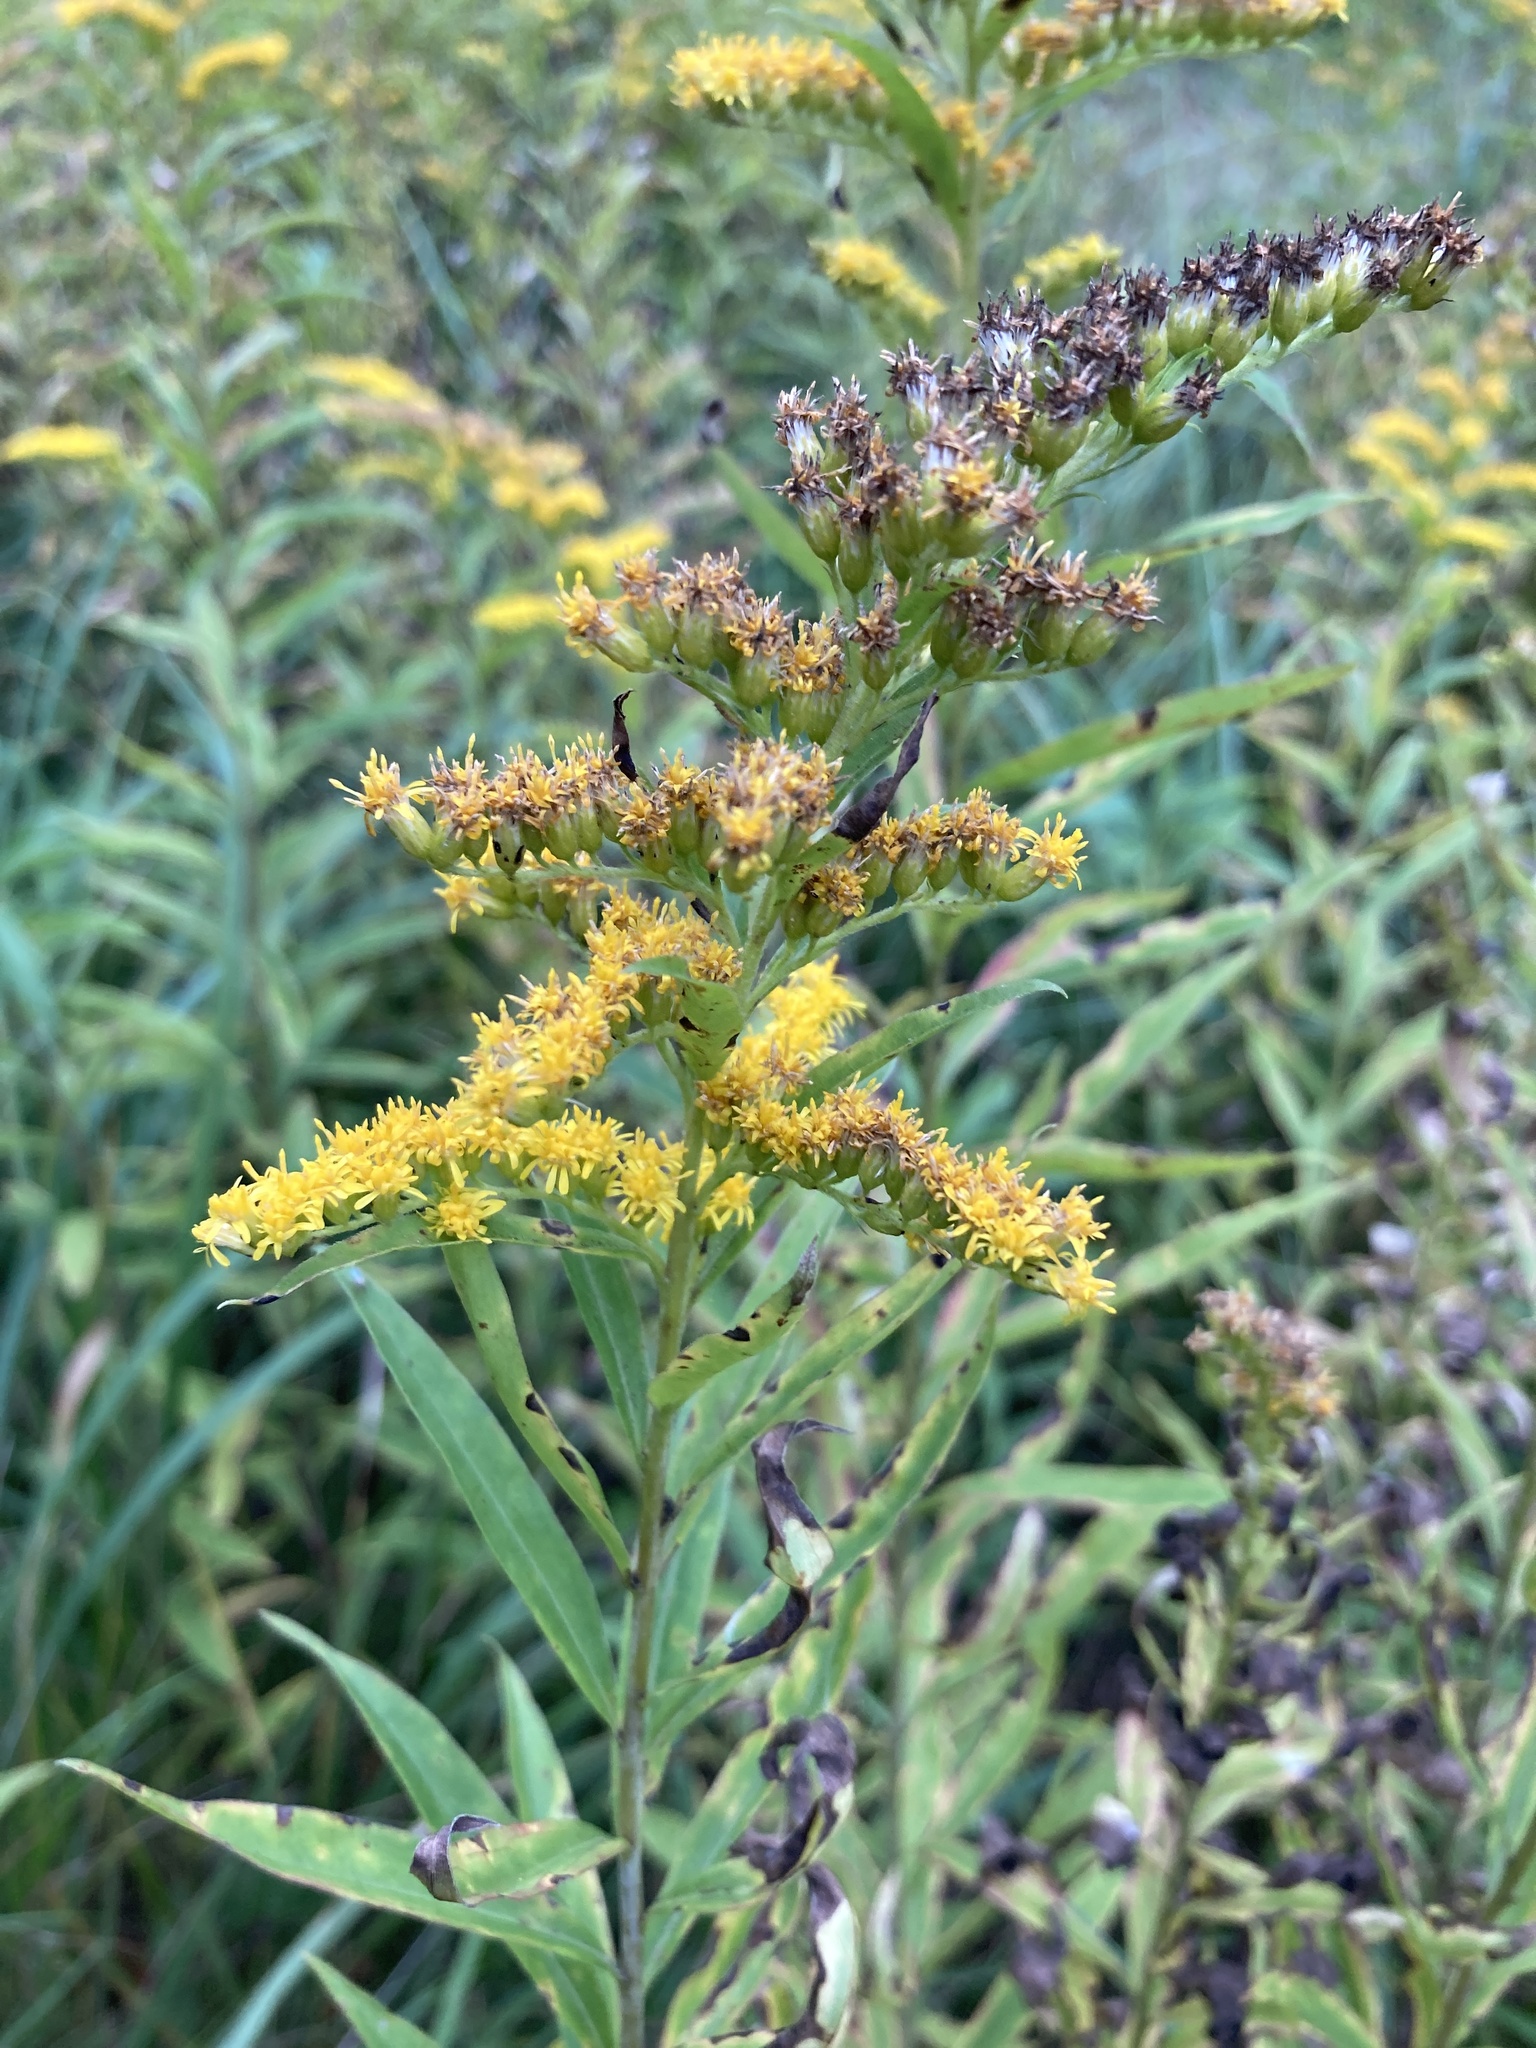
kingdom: Plantae
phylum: Tracheophyta
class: Magnoliopsida
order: Asterales
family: Asteraceae
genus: Solidago
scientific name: Solidago gigantea
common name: Giant goldenrod
